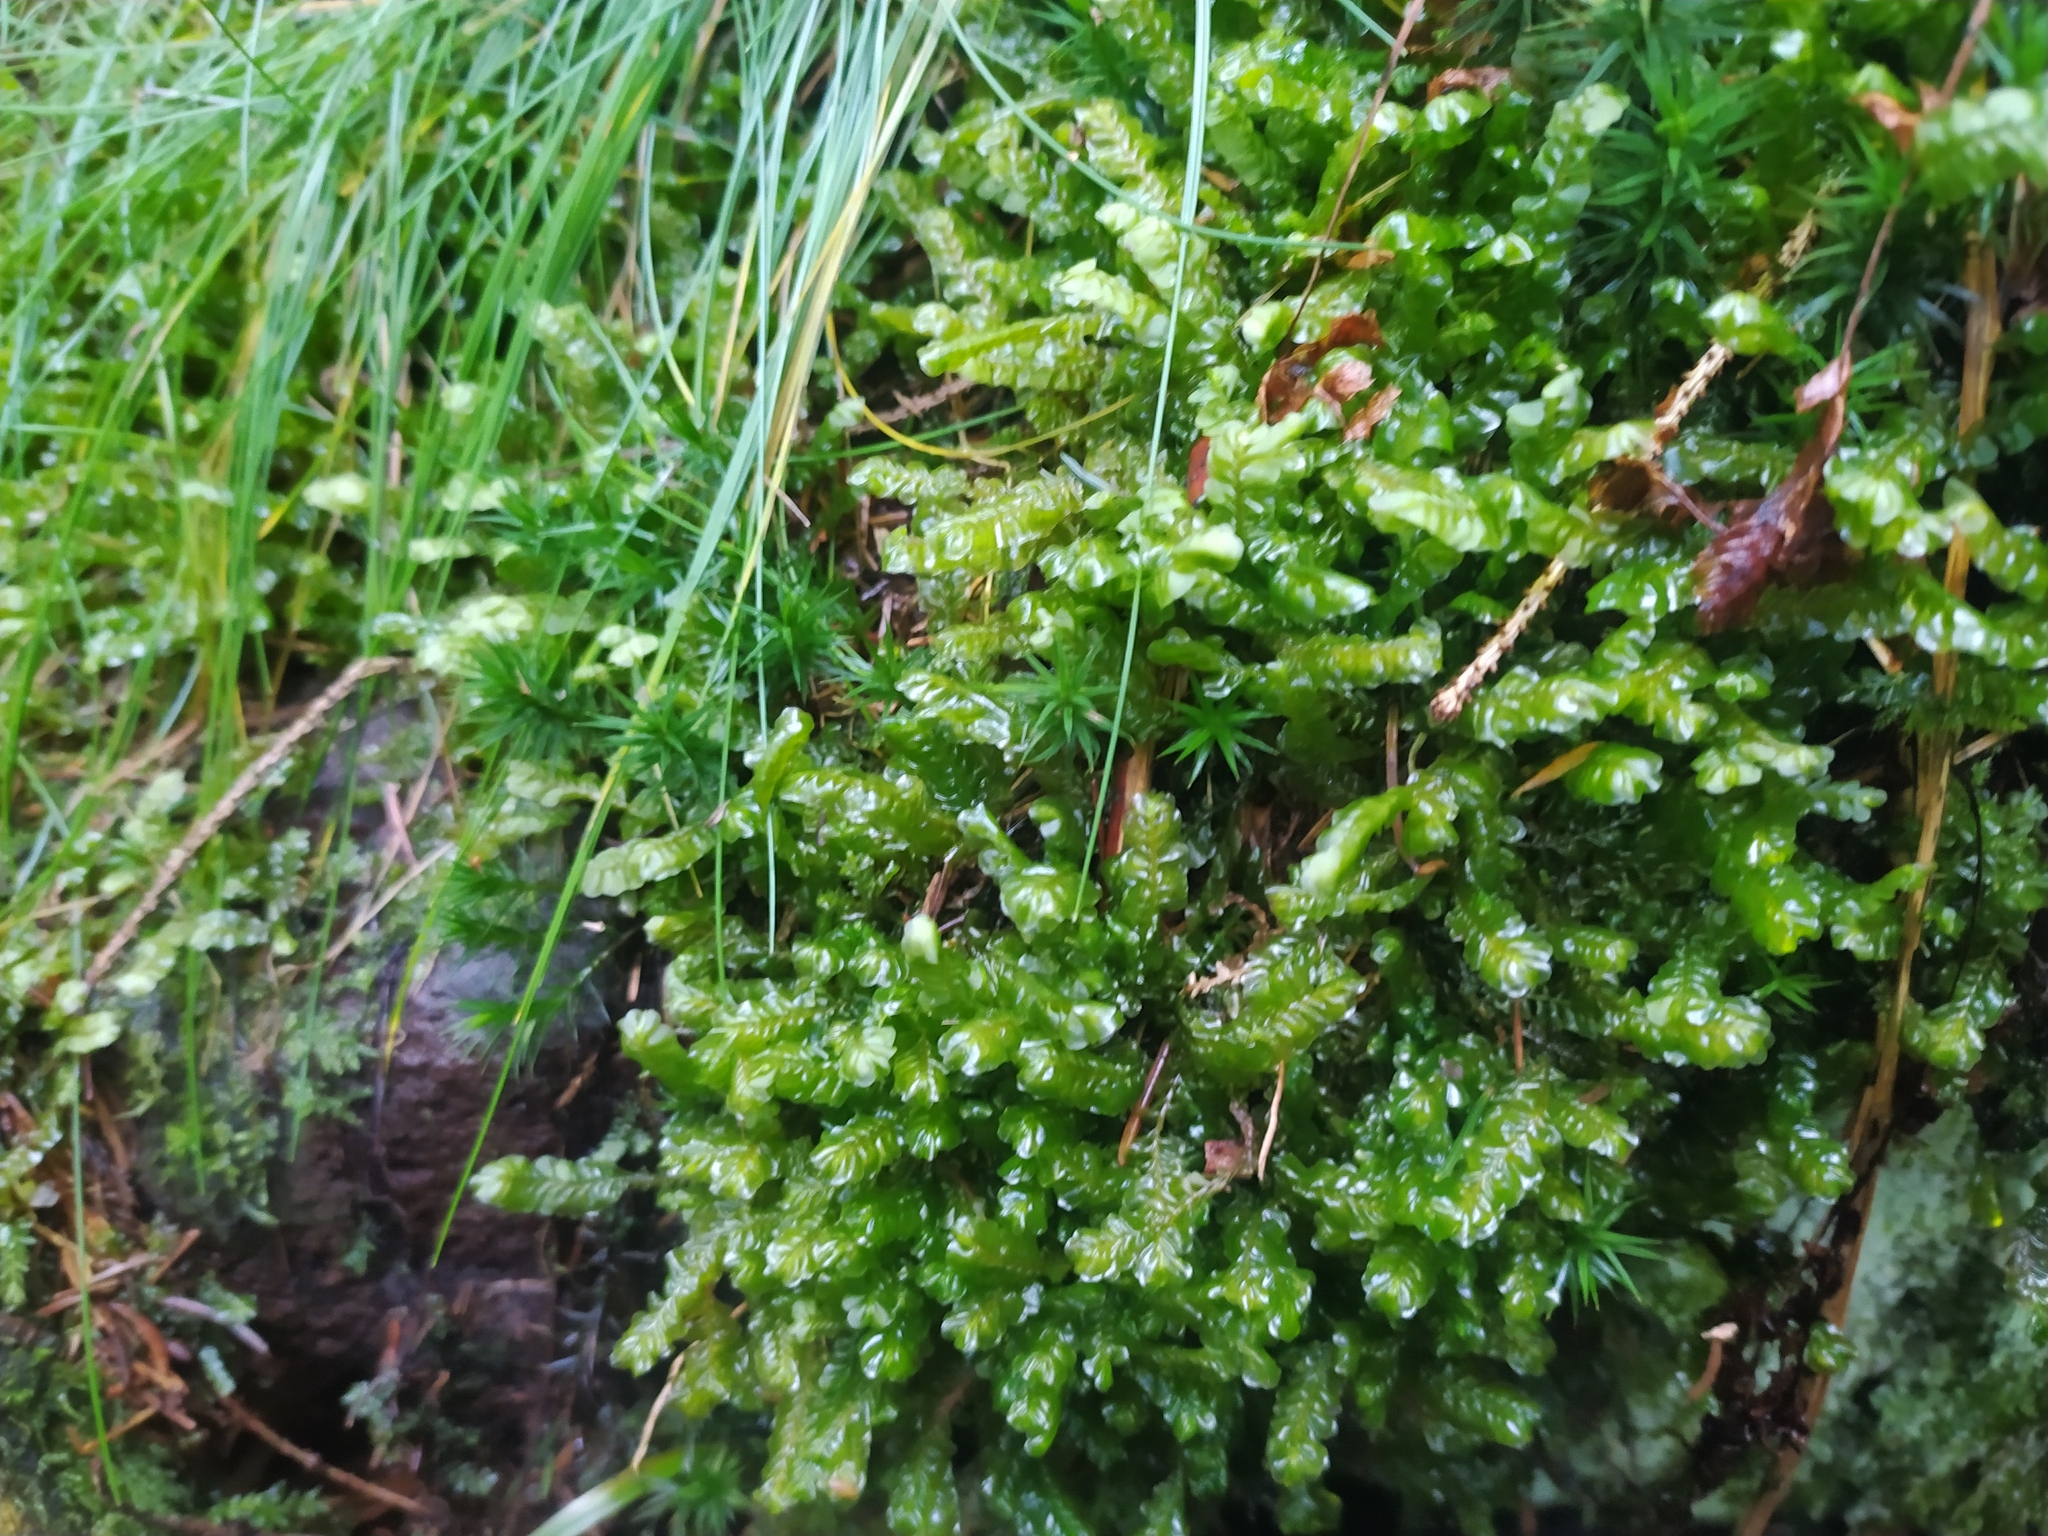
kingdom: Plantae
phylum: Marchantiophyta
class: Jungermanniopsida
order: Jungermanniales
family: Plagiochilaceae
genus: Plagiochila
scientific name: Plagiochila asplenioides
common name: Greater featherwort
